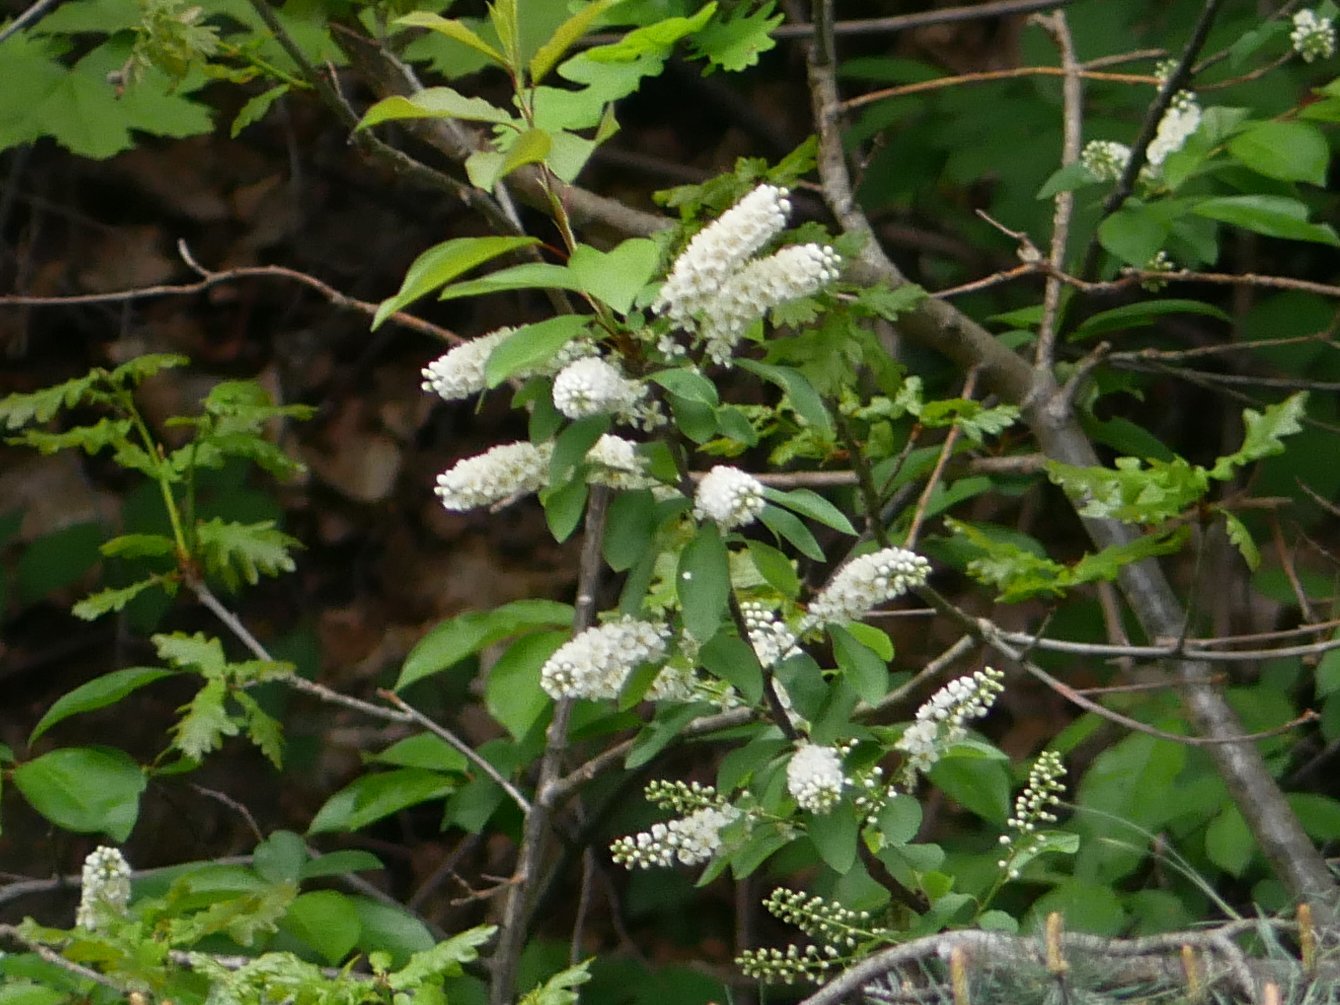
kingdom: Plantae
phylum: Tracheophyta
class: Magnoliopsida
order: Rosales
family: Rosaceae
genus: Prunus
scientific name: Prunus padus
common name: Bird cherry
